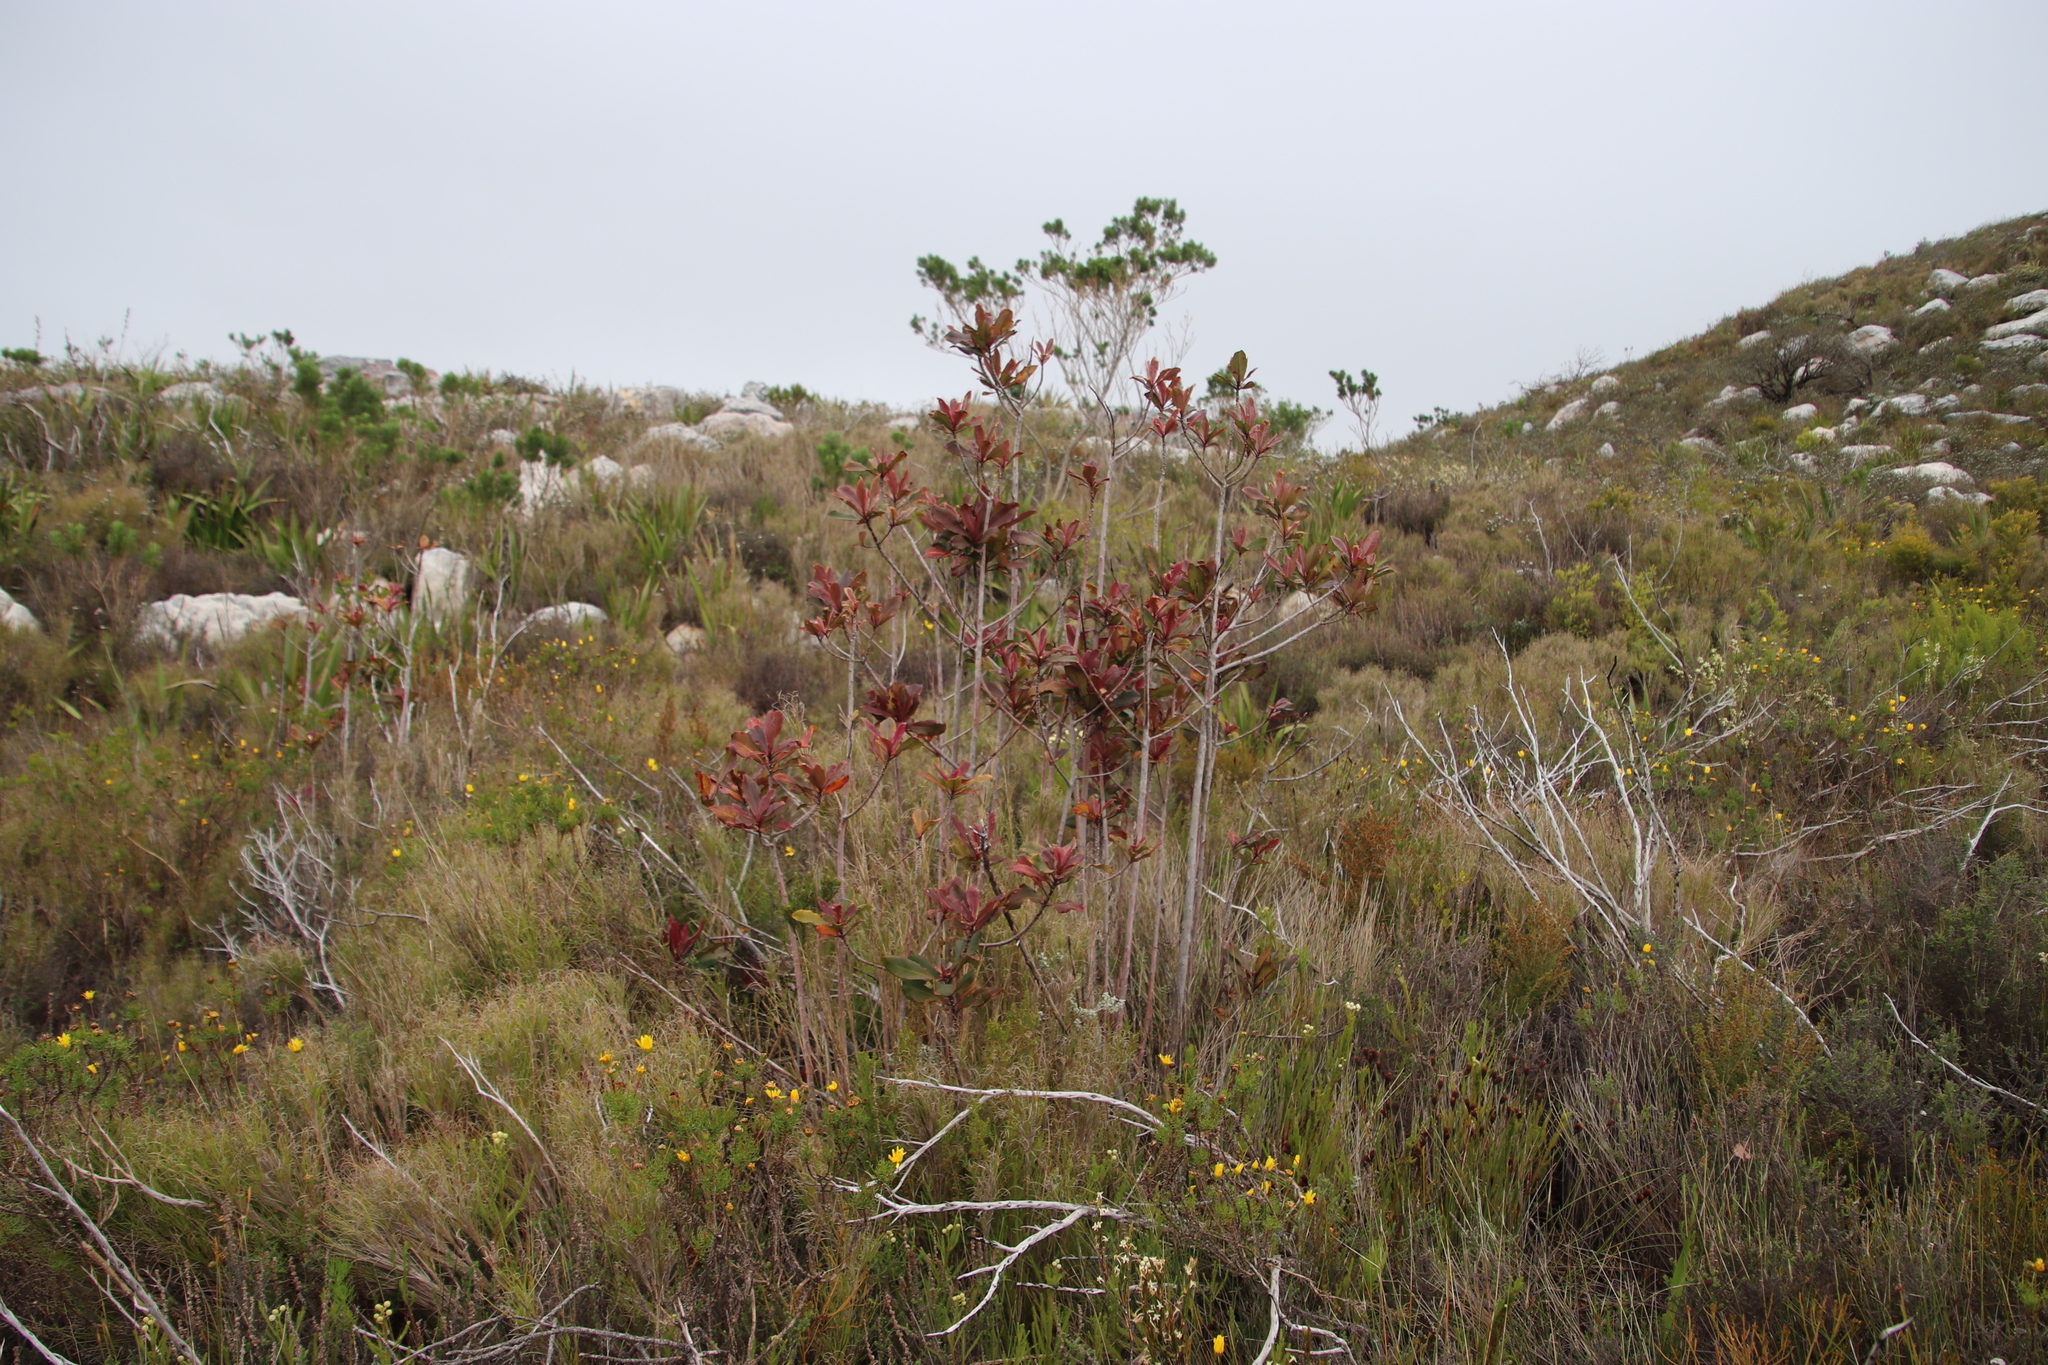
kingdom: Plantae
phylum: Tracheophyta
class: Magnoliopsida
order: Ericales
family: Primulaceae
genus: Myrsine
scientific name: Myrsine melanophloeos
